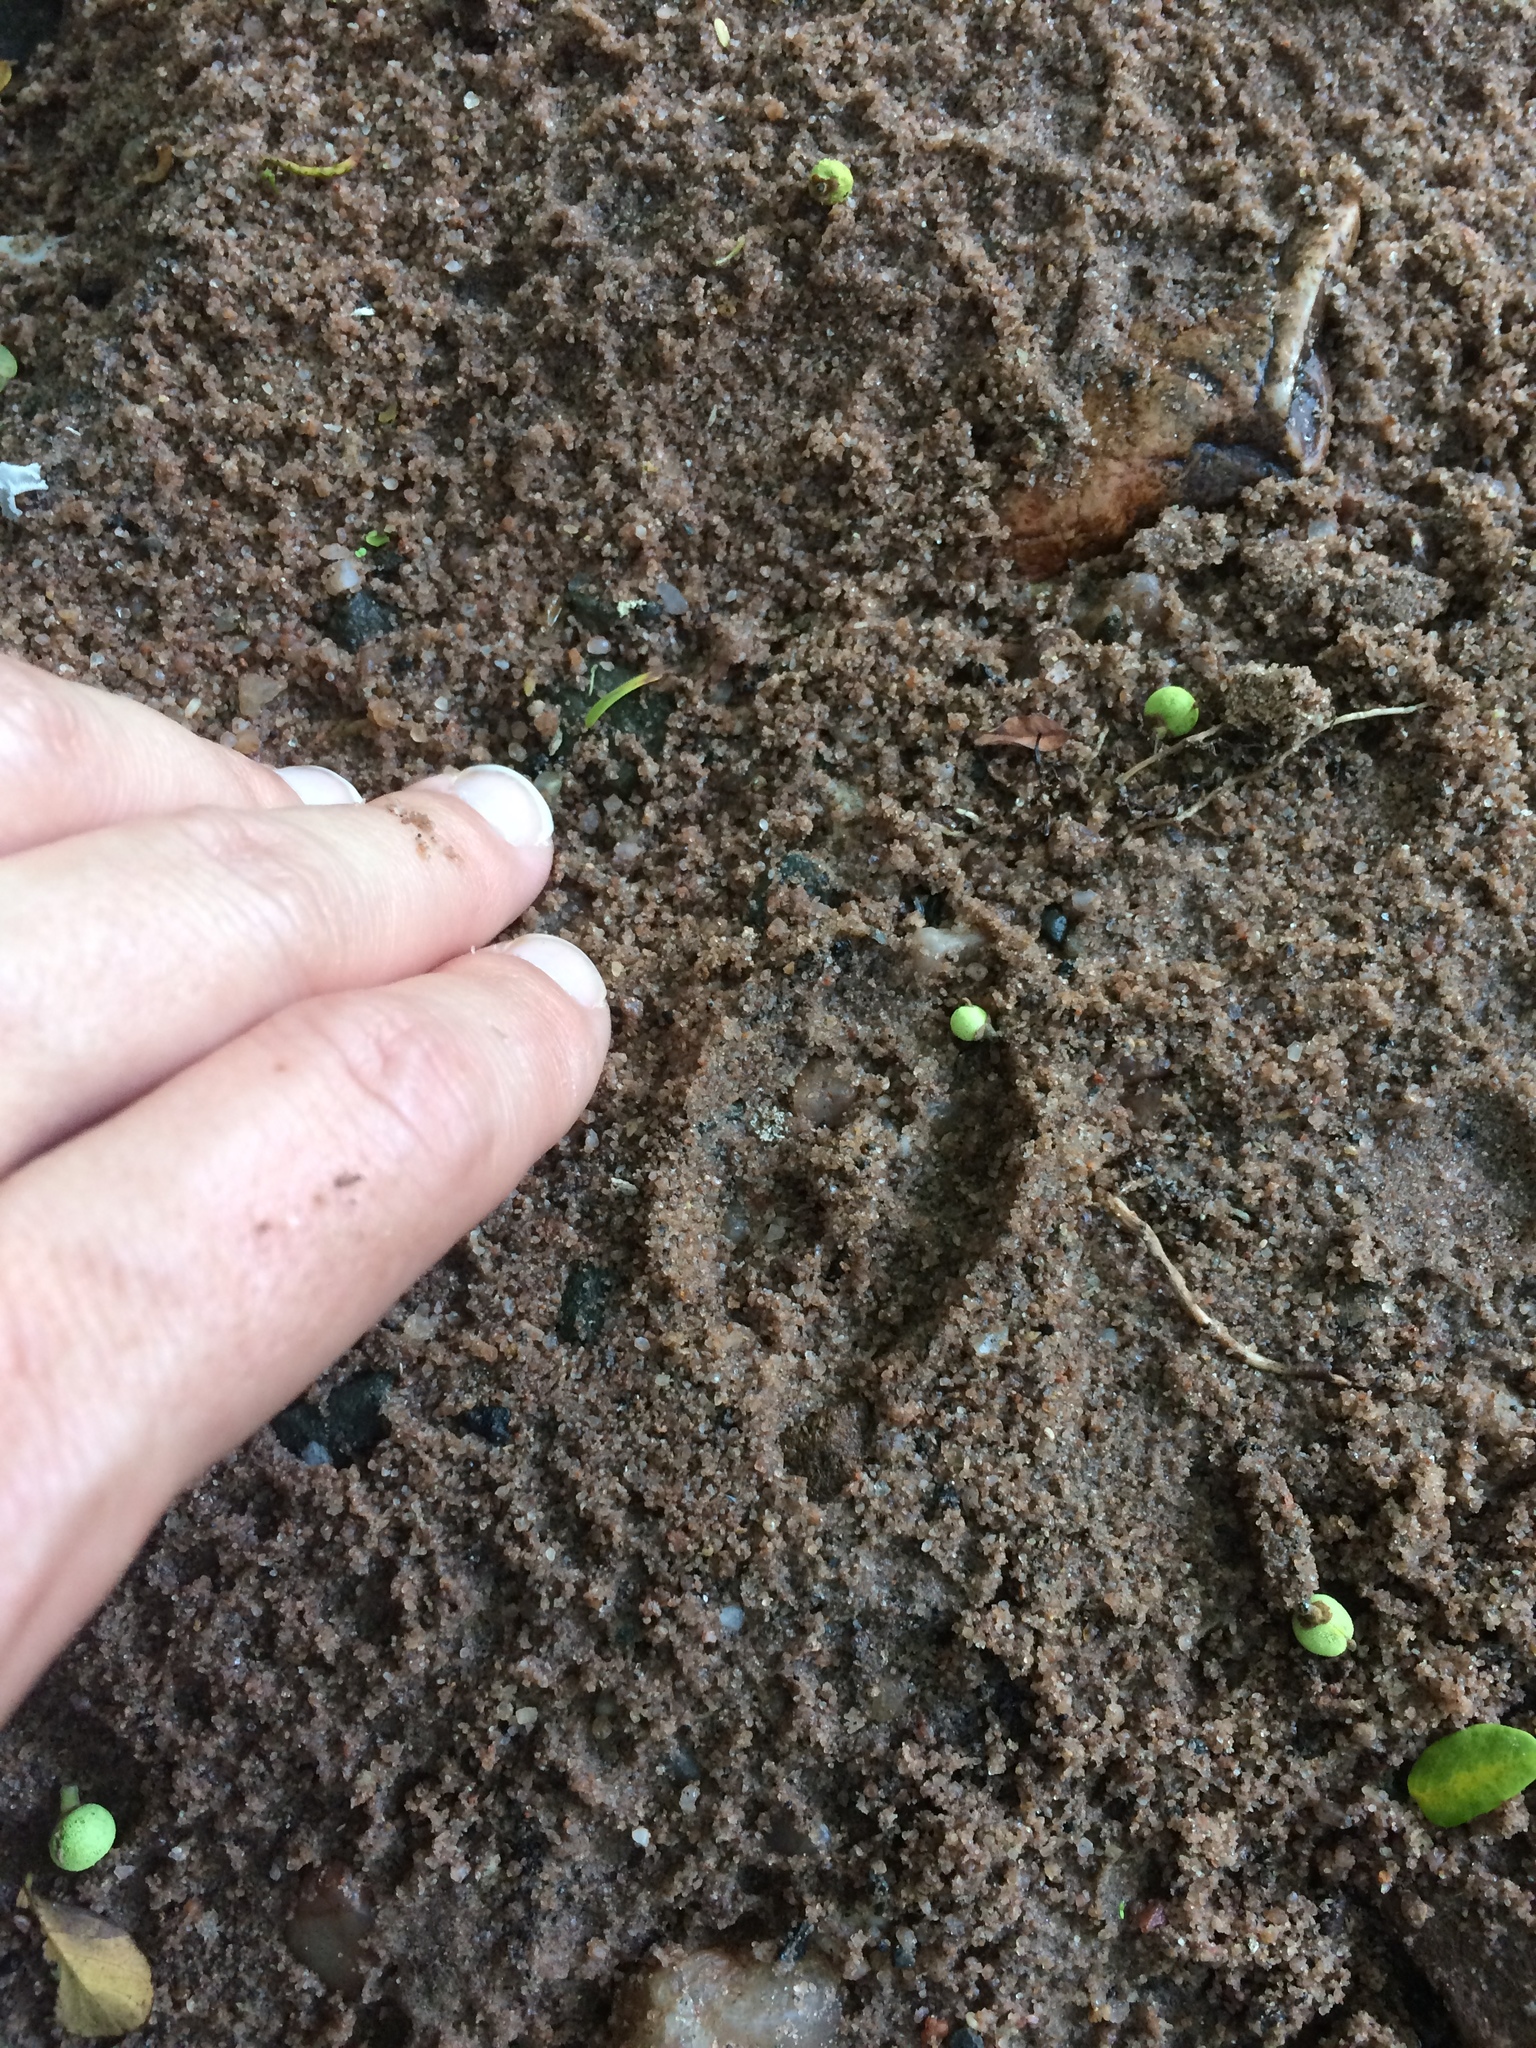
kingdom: Animalia
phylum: Chordata
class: Mammalia
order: Artiodactyla
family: Bovidae
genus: Philantomba
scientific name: Philantomba monticola
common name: Blue duiker
